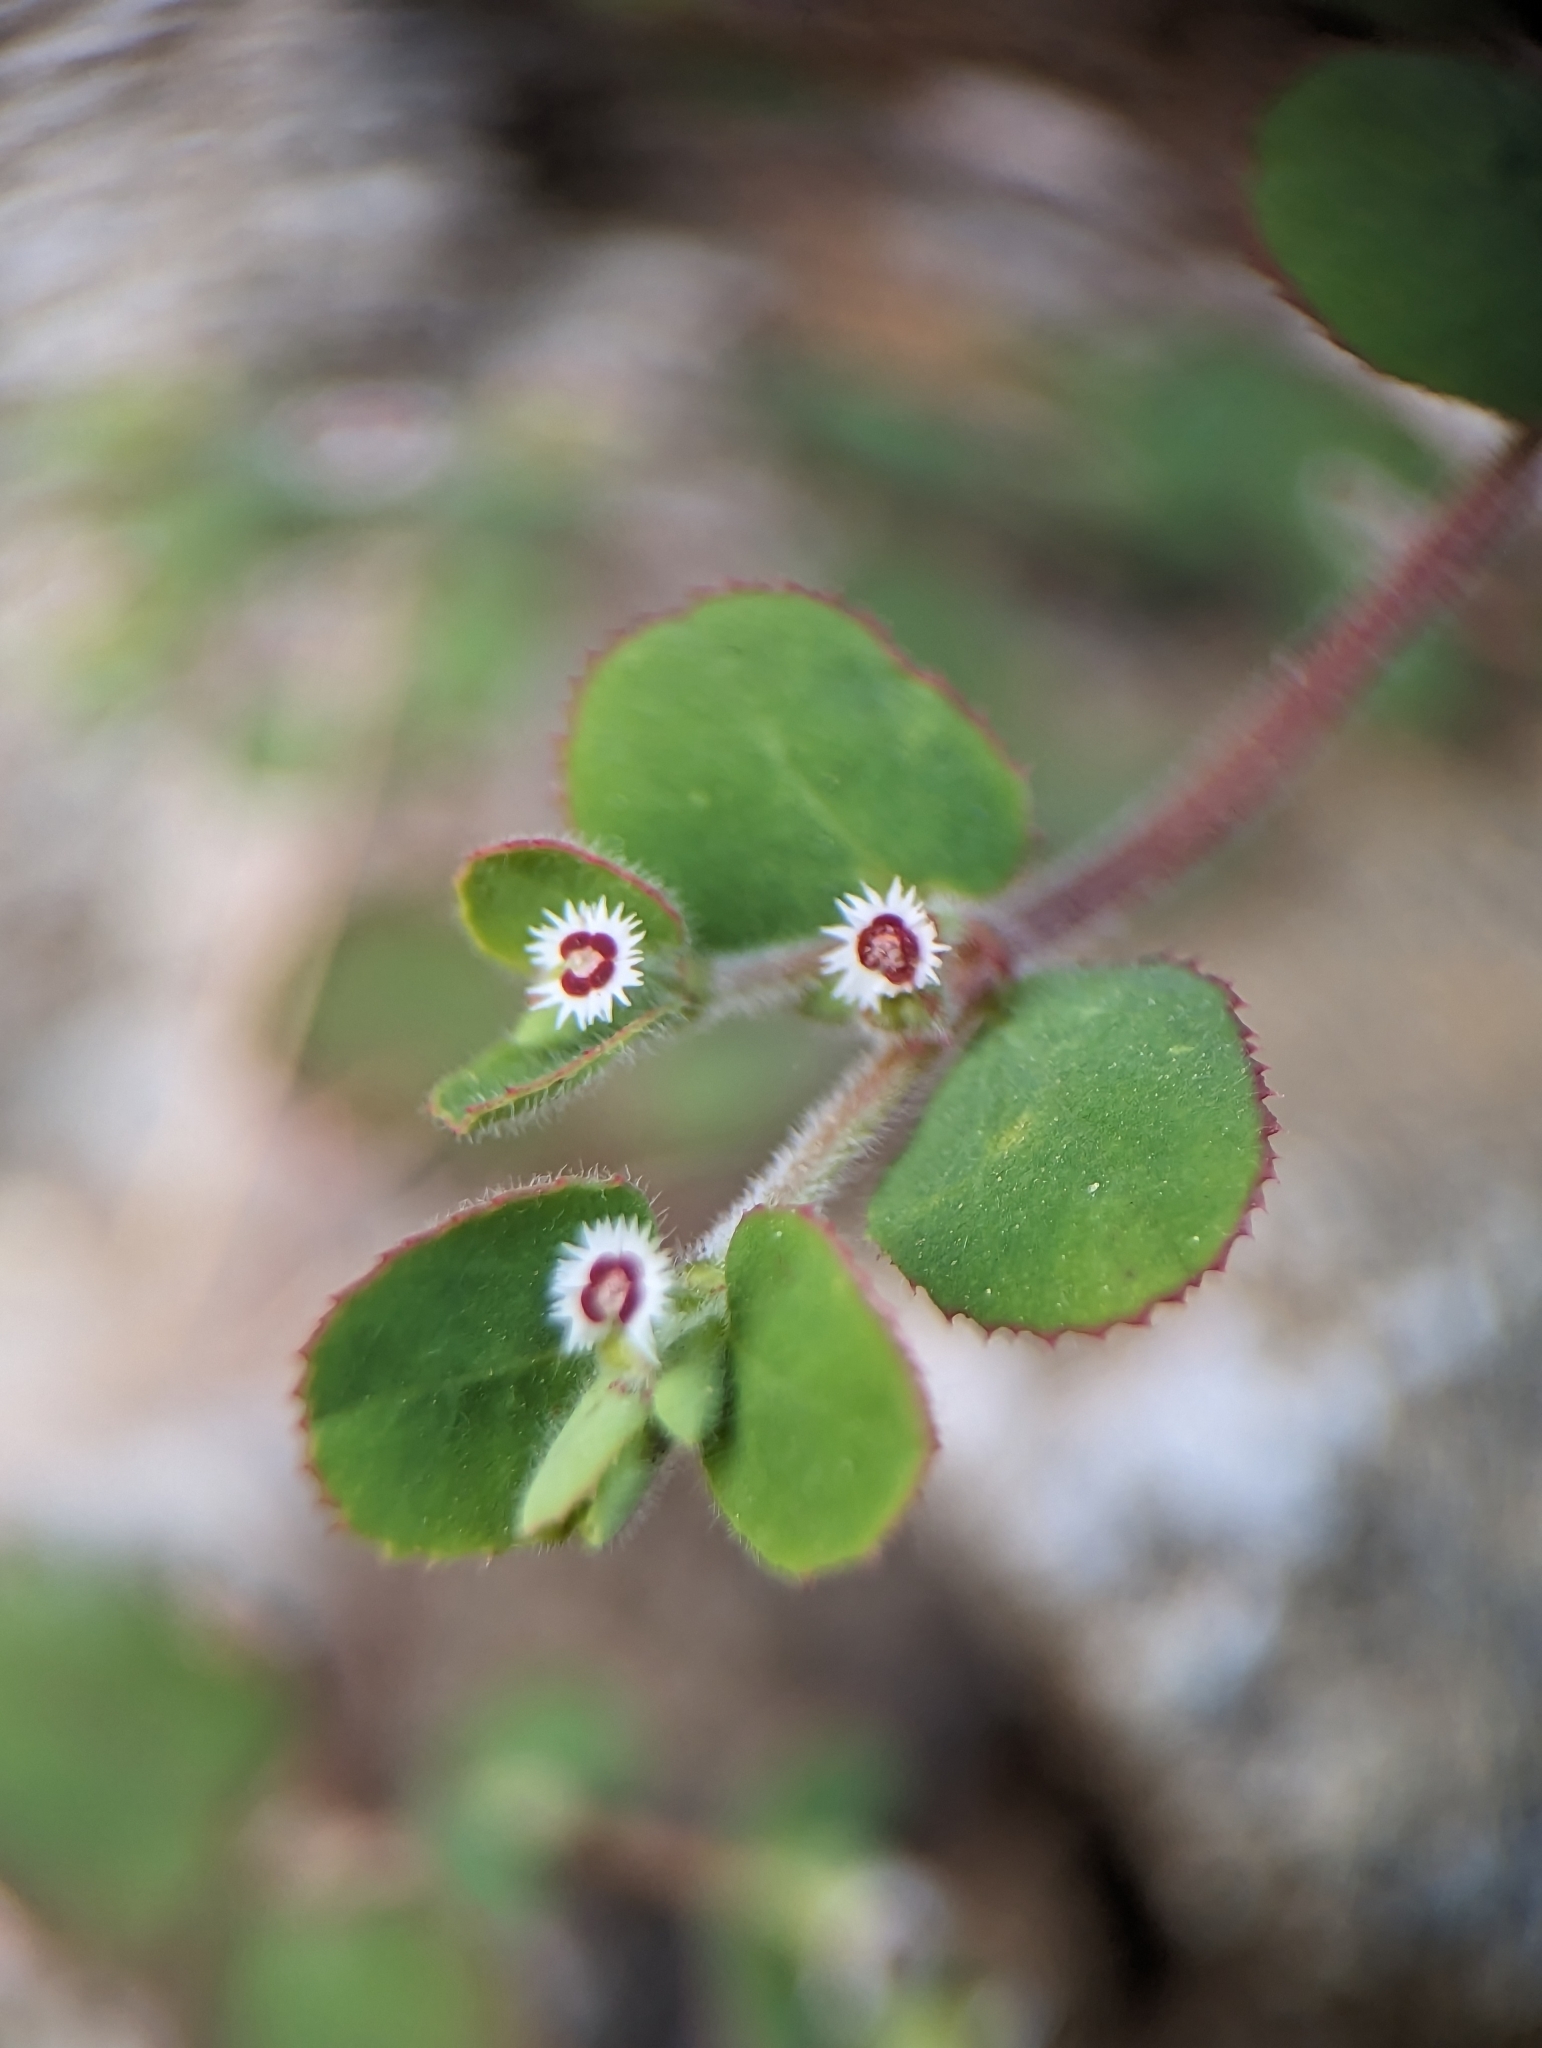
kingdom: Plantae
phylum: Tracheophyta
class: Magnoliopsida
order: Malpighiales
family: Euphorbiaceae
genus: Euphorbia
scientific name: Euphorbia setiloba
